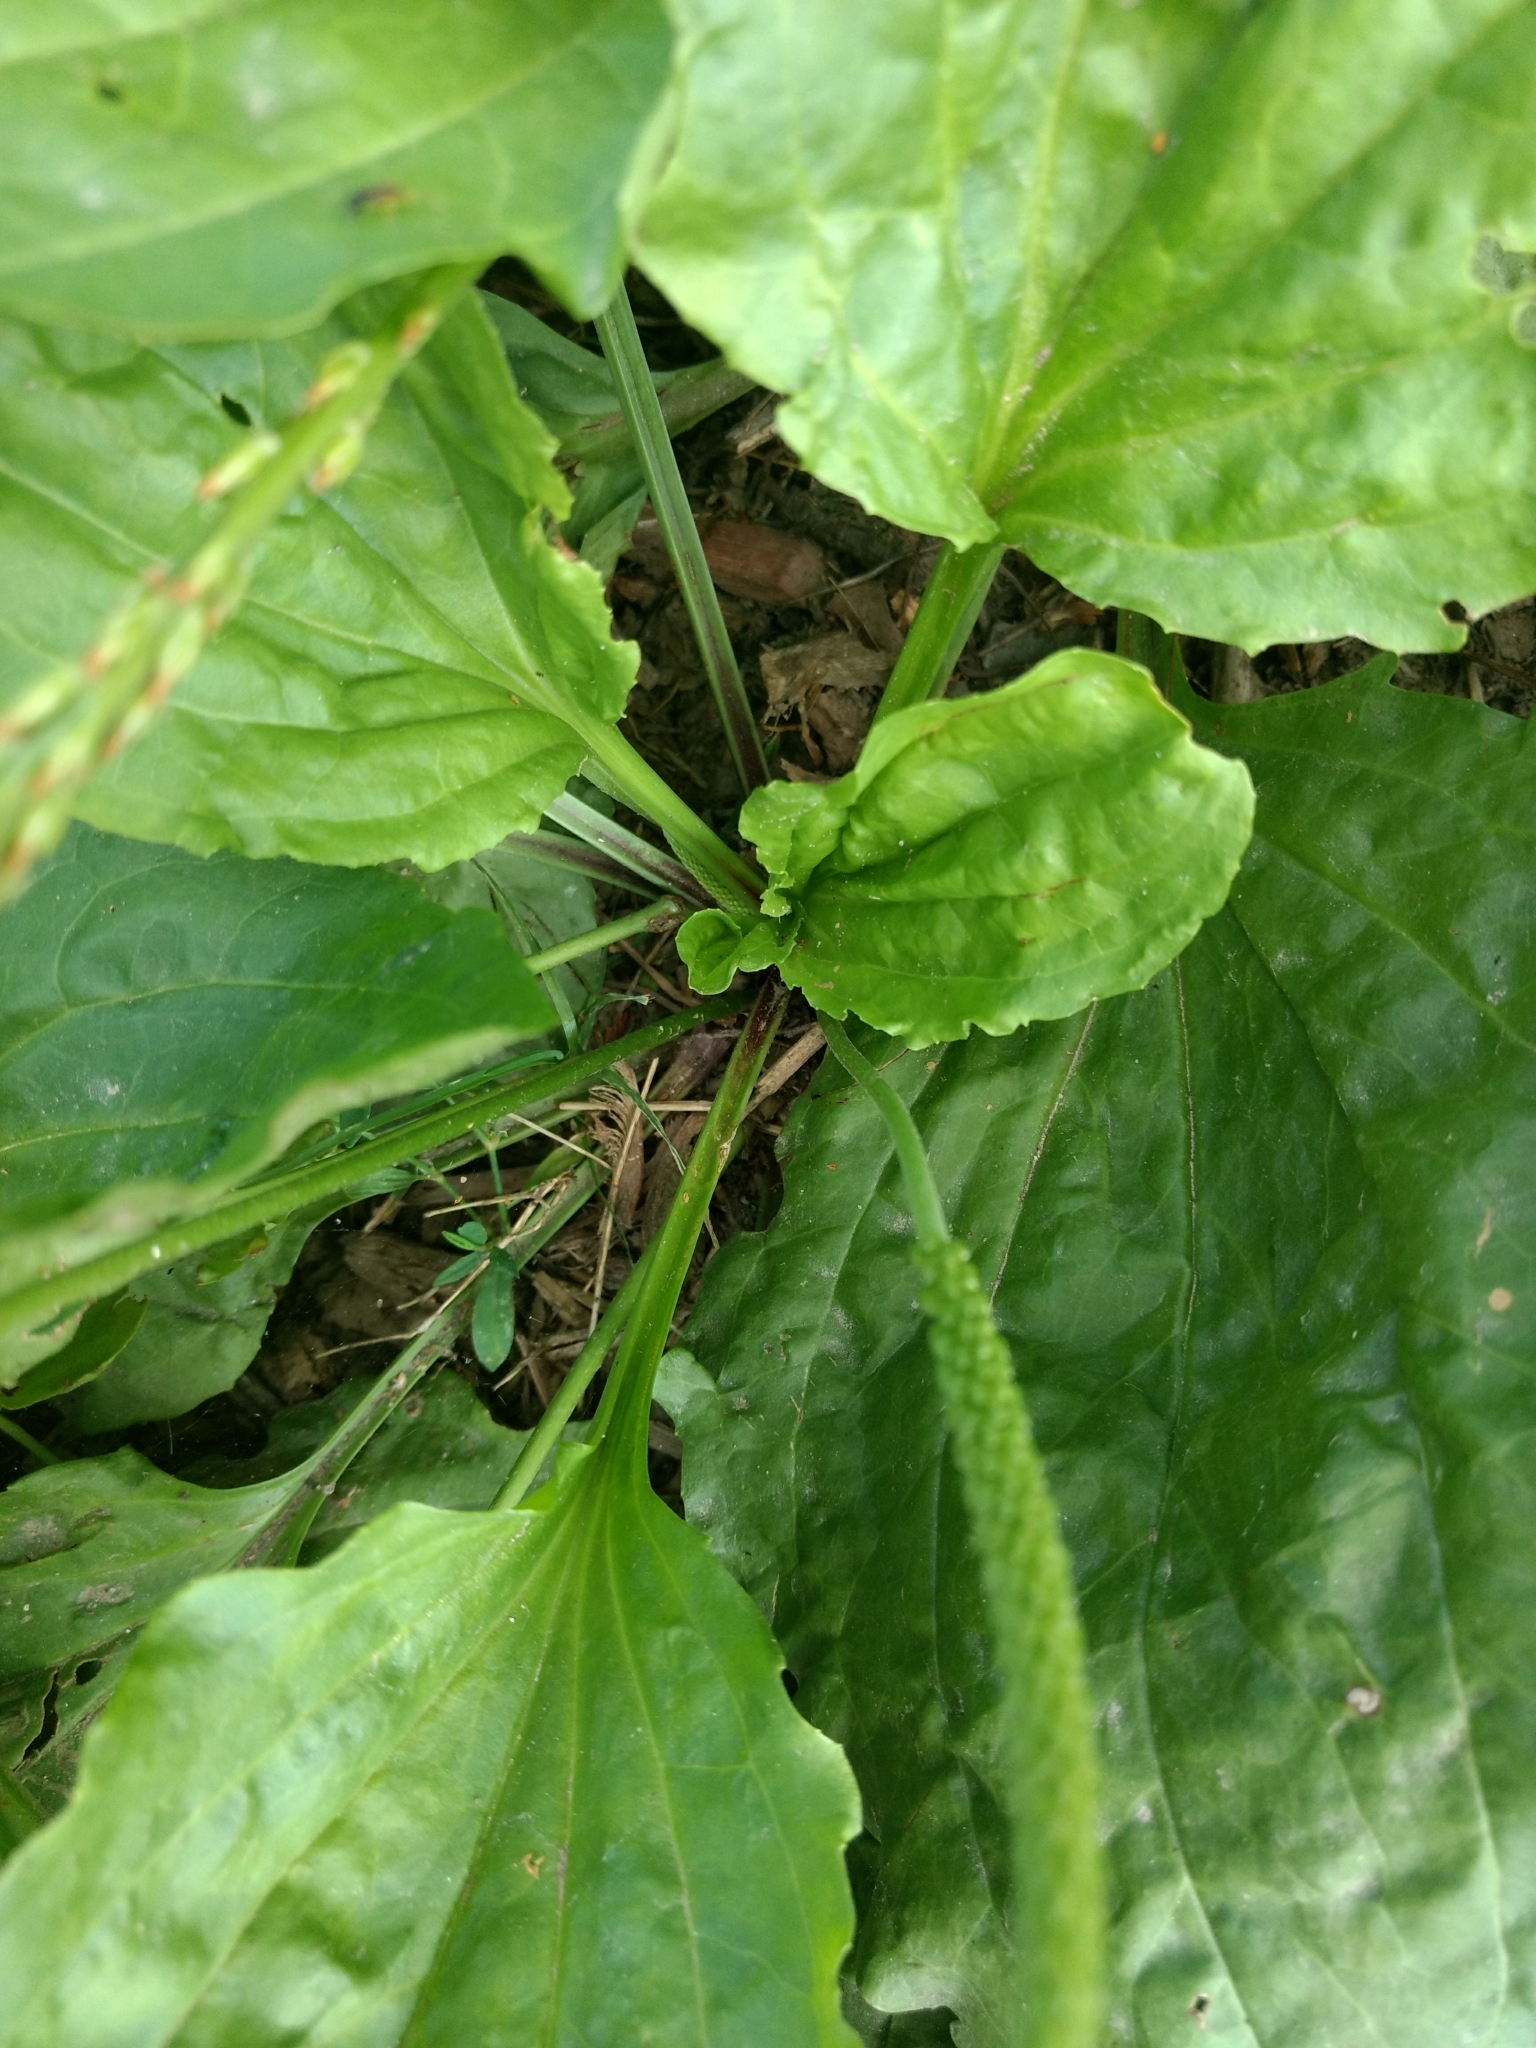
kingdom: Plantae
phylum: Tracheophyta
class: Magnoliopsida
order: Lamiales
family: Plantaginaceae
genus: Plantago
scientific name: Plantago rugelii
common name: American plantain
